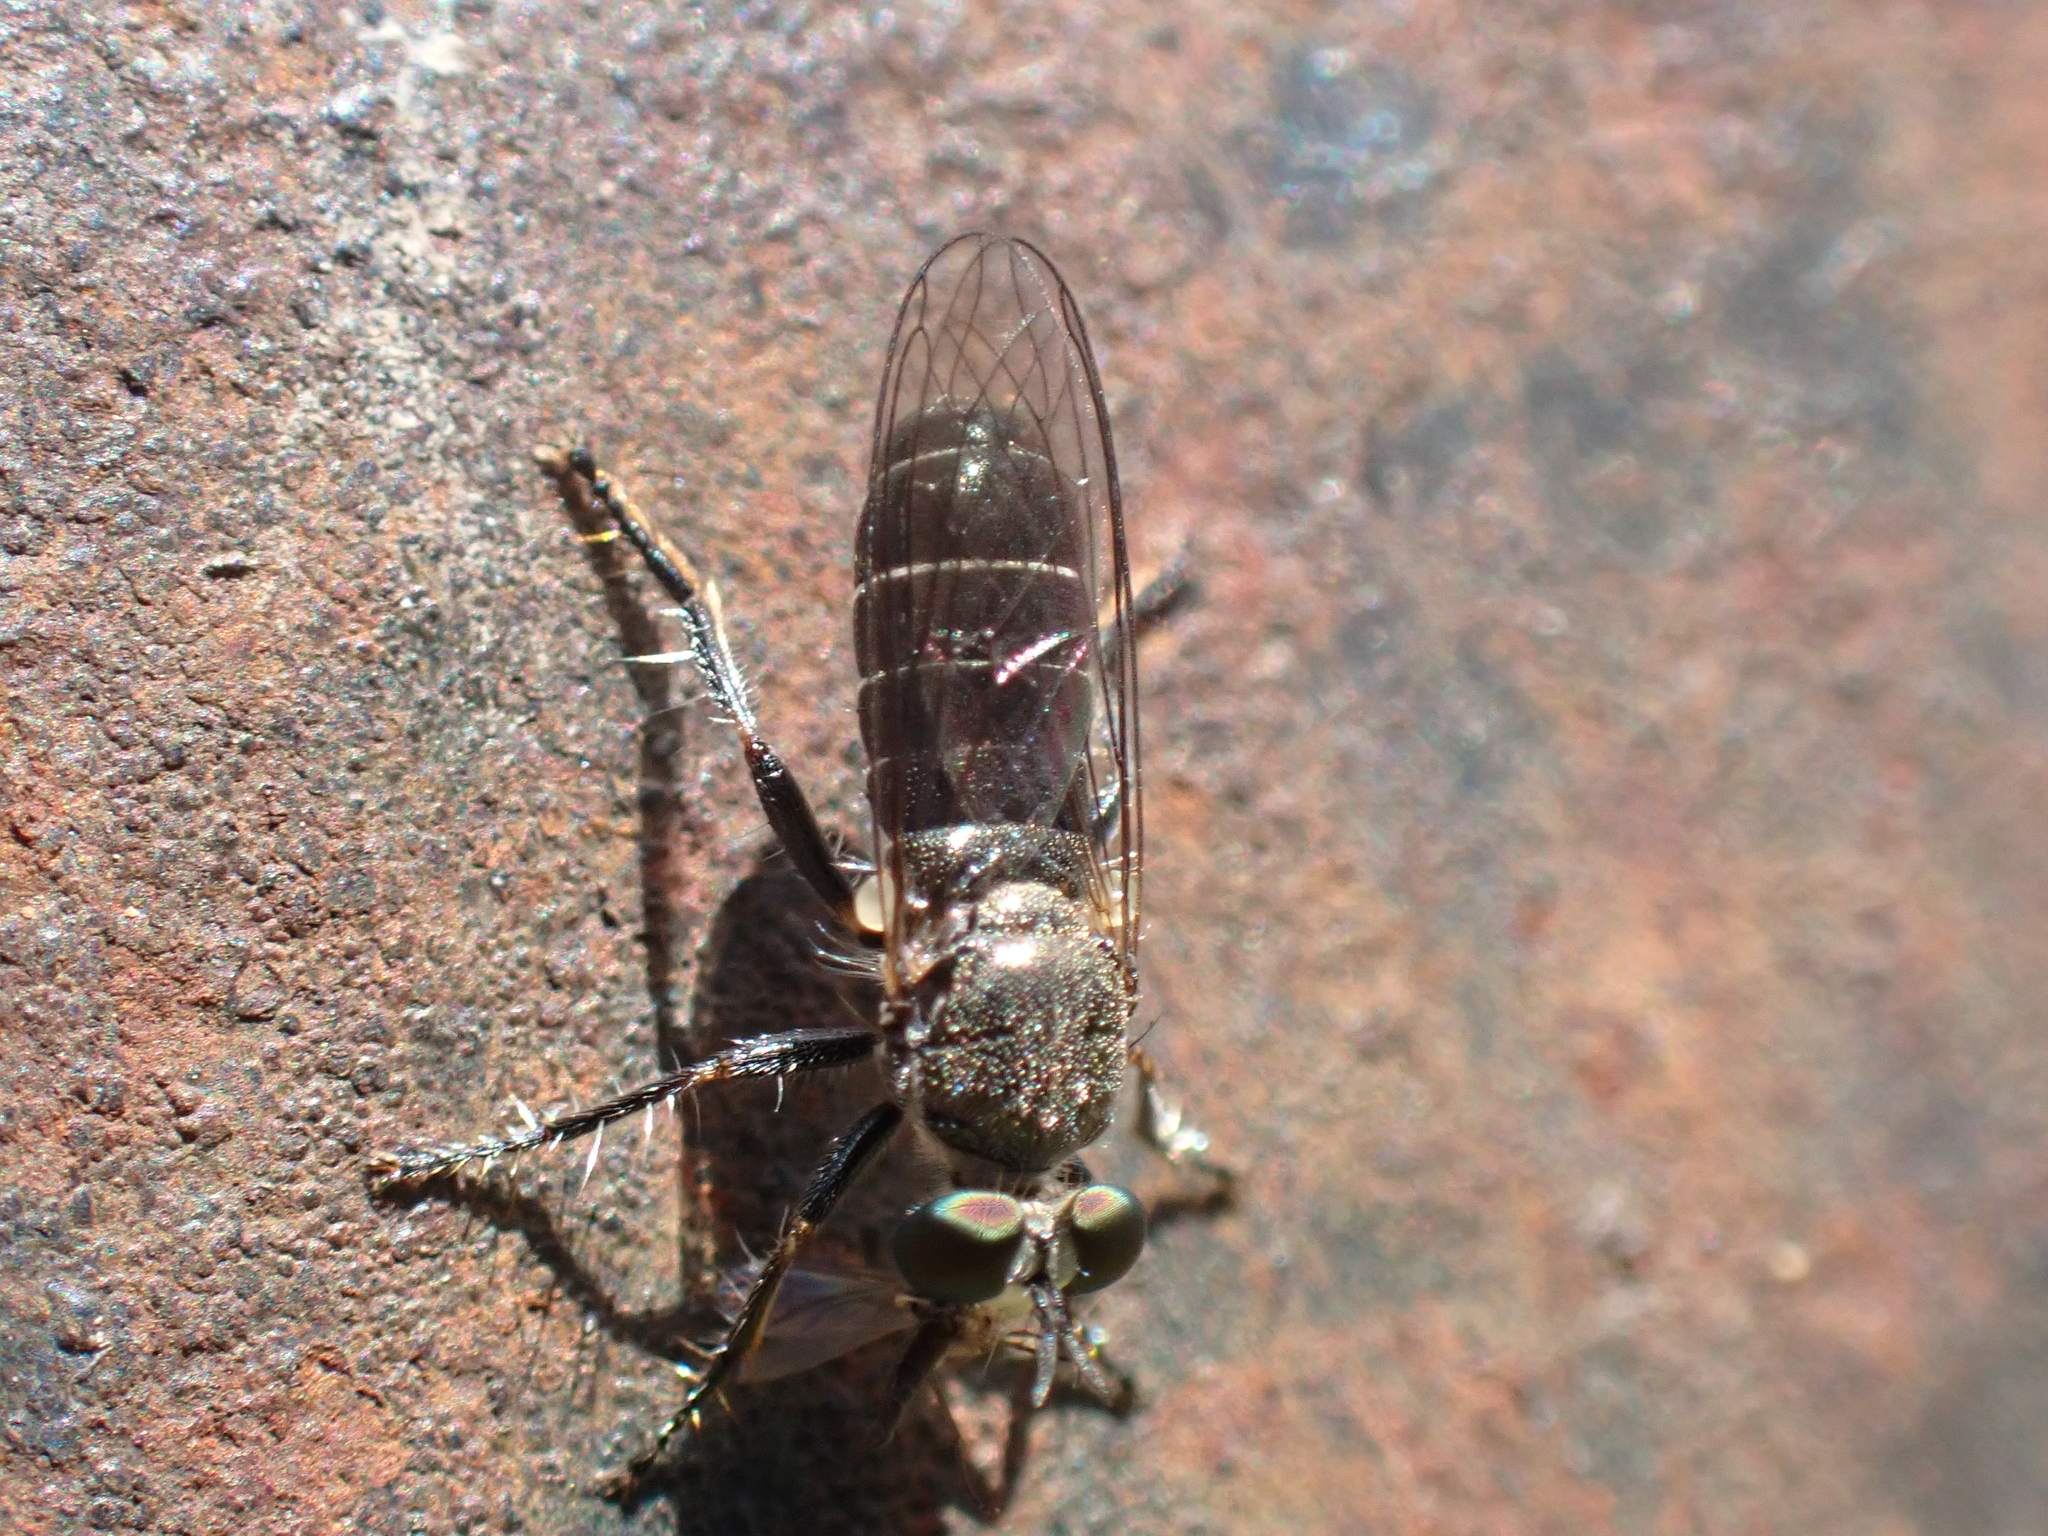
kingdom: Animalia
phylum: Arthropoda
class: Insecta
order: Diptera
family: Asilidae
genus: Atomosia
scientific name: Atomosia puella
